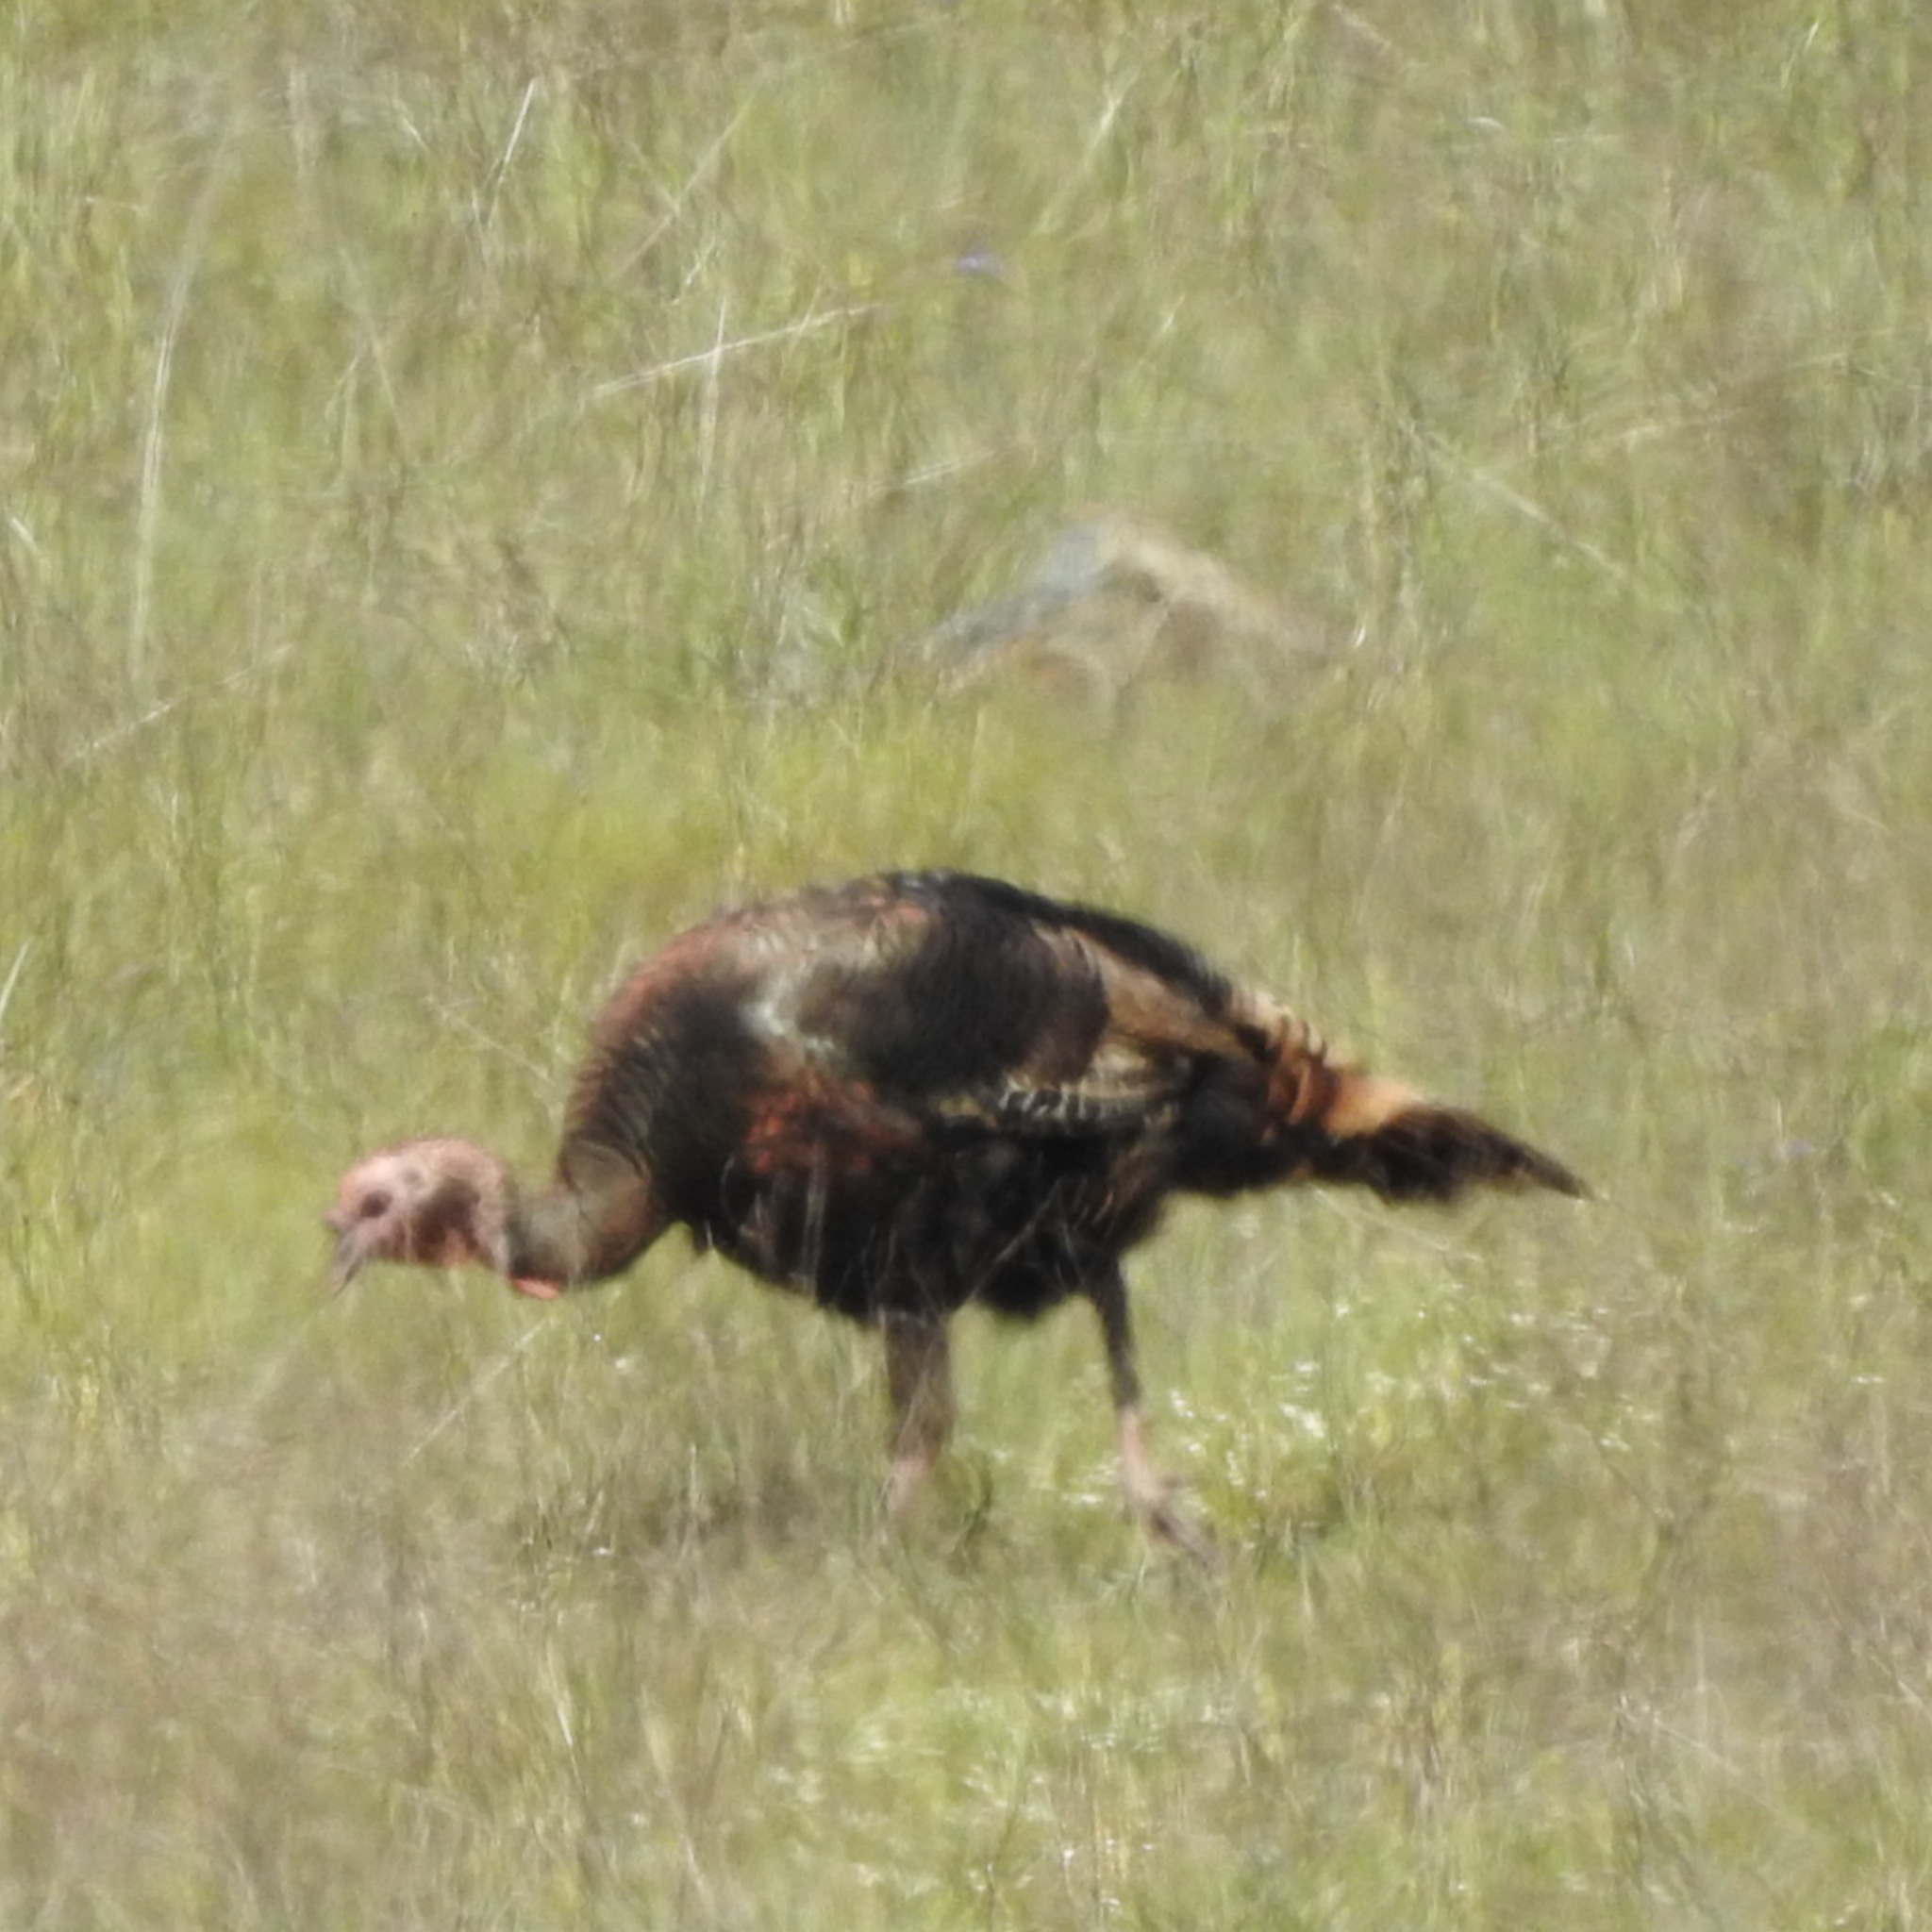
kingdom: Animalia
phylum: Chordata
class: Aves
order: Galliformes
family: Phasianidae
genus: Meleagris
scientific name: Meleagris gallopavo
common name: Wild turkey
